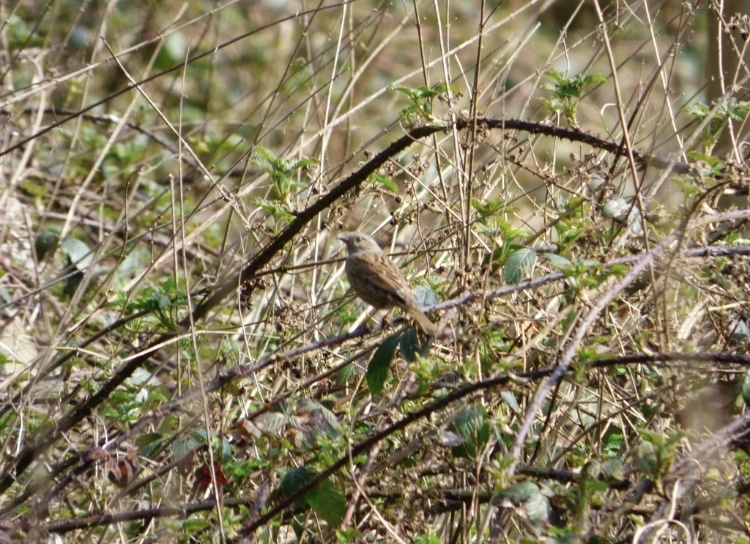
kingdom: Animalia
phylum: Chordata
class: Aves
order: Passeriformes
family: Prunellidae
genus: Prunella
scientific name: Prunella modularis
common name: Dunnock
